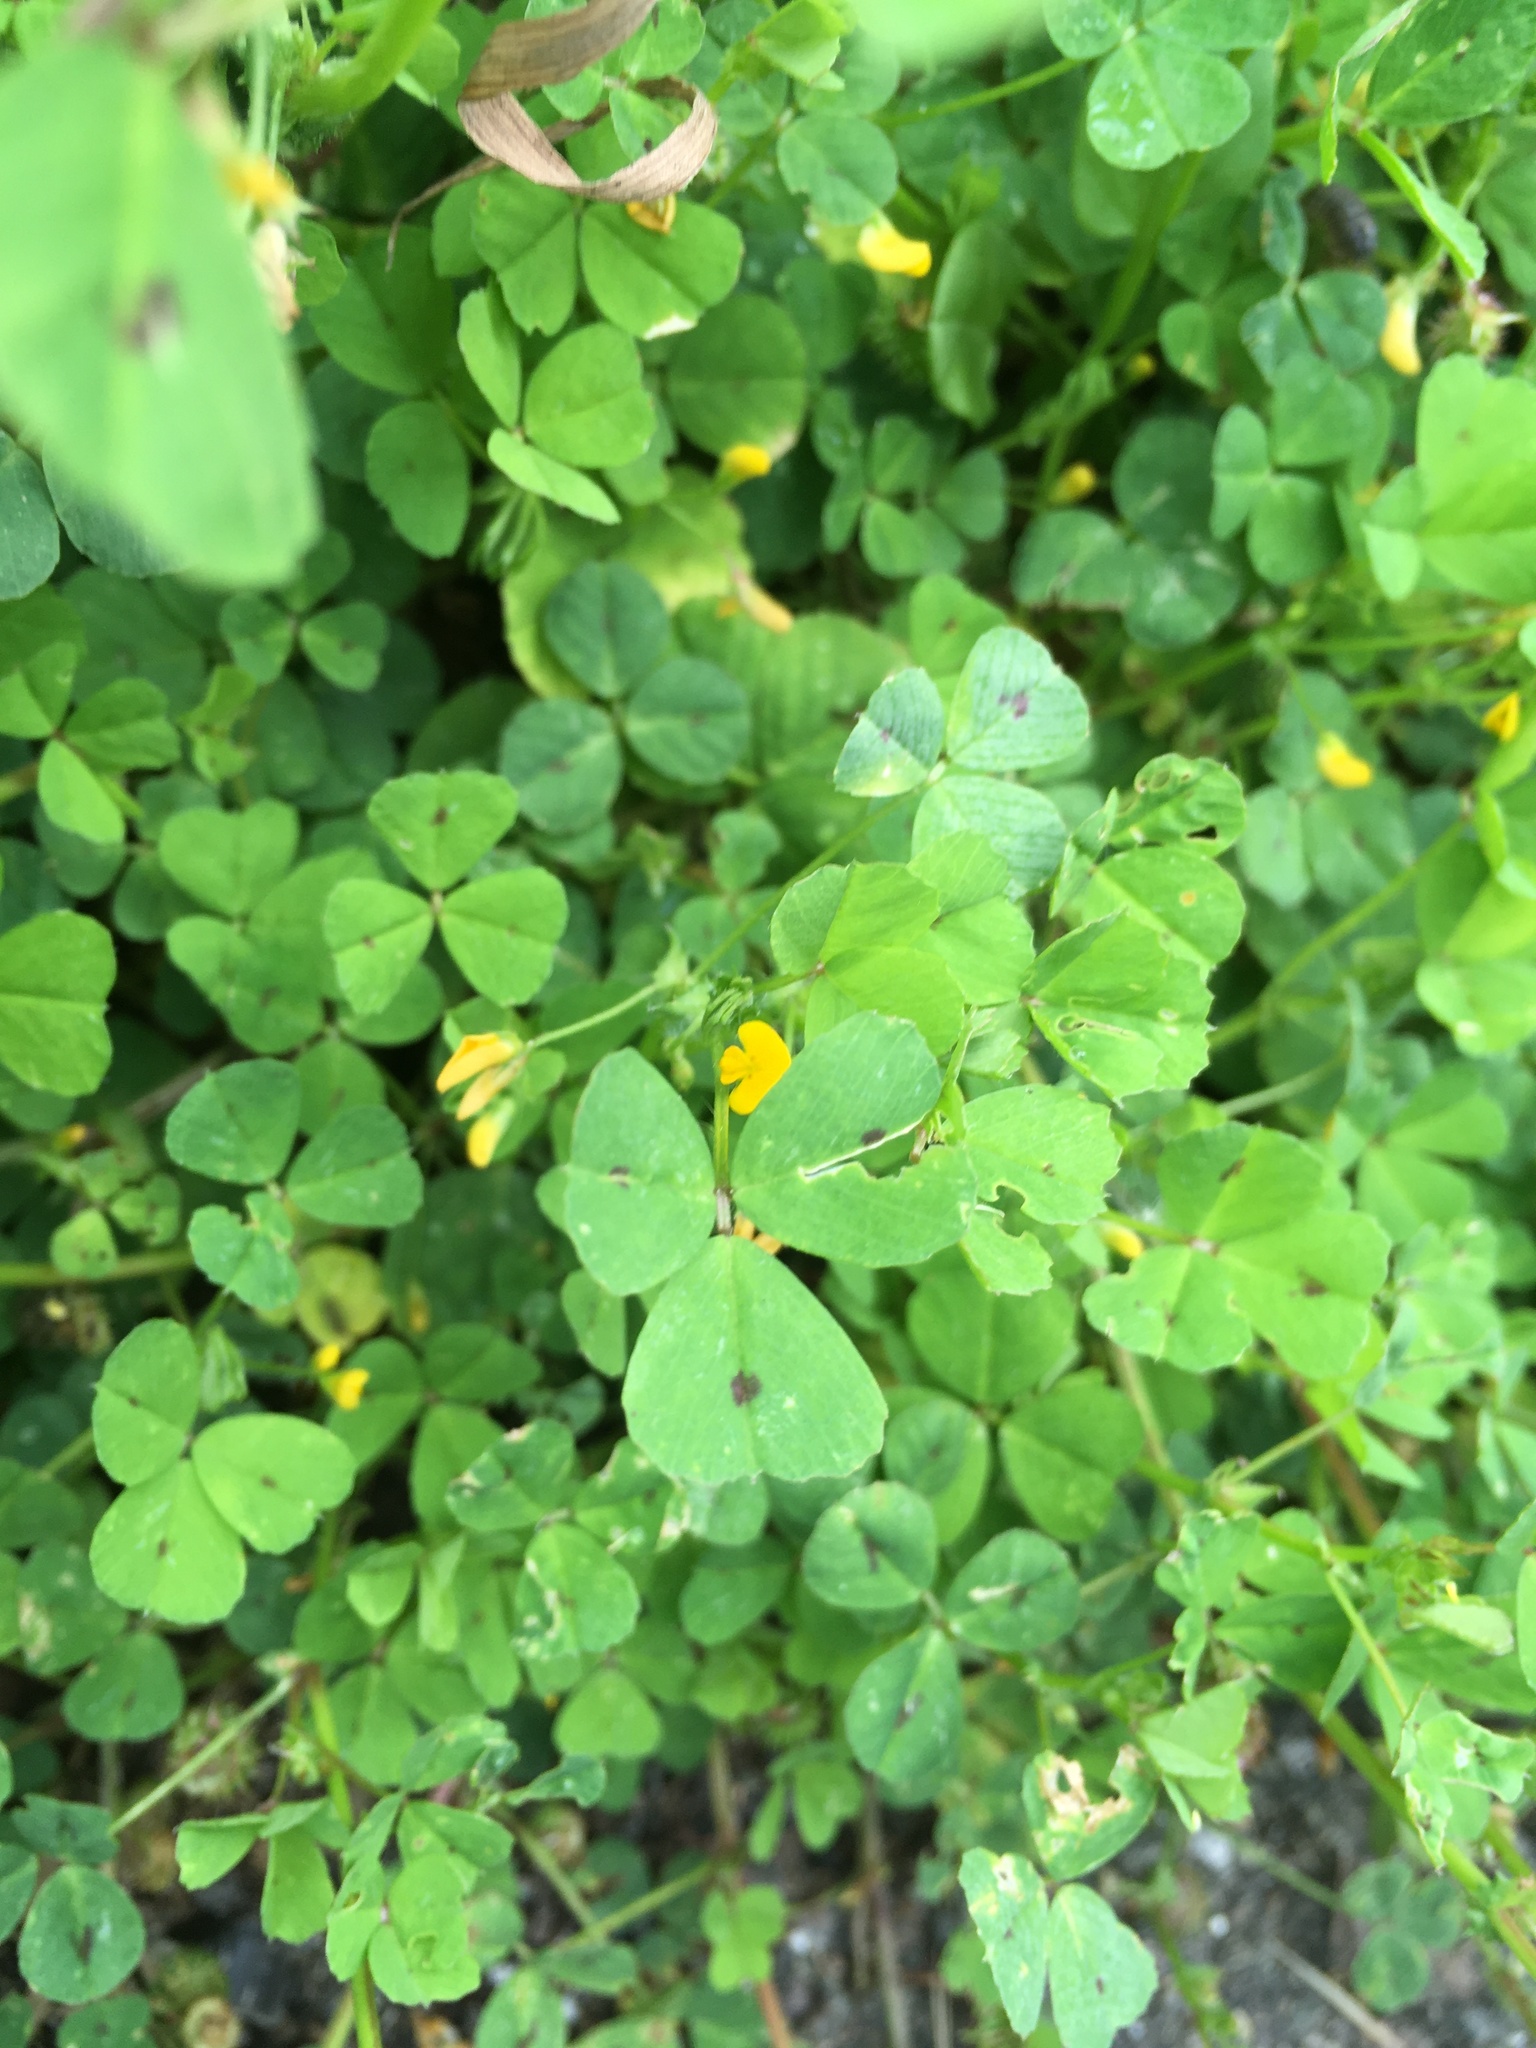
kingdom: Plantae
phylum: Tracheophyta
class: Magnoliopsida
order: Fabales
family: Fabaceae
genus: Medicago
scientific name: Medicago arabica
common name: Spotted medick
